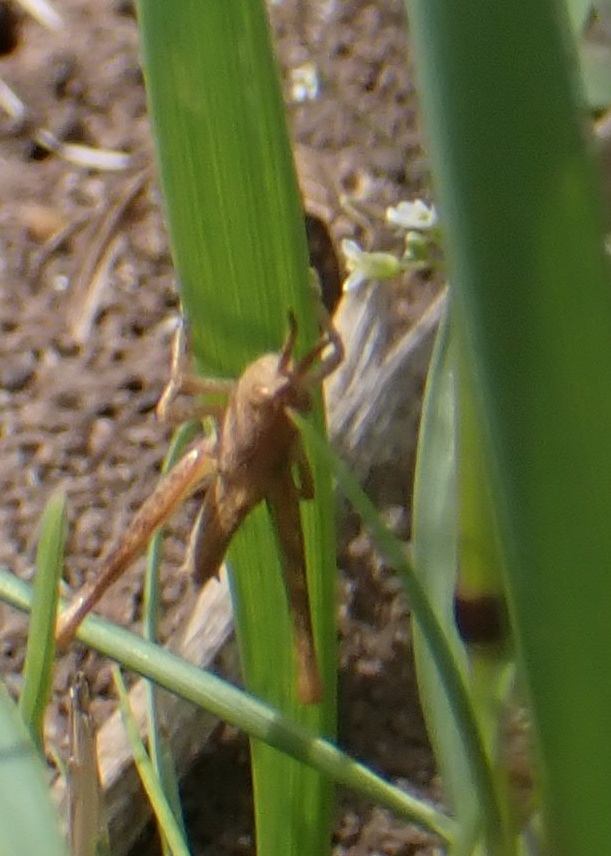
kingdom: Animalia
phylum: Arthropoda
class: Insecta
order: Orthoptera
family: Acrididae
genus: Chorthippus
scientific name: Chorthippus brunneus
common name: Field grasshopper
